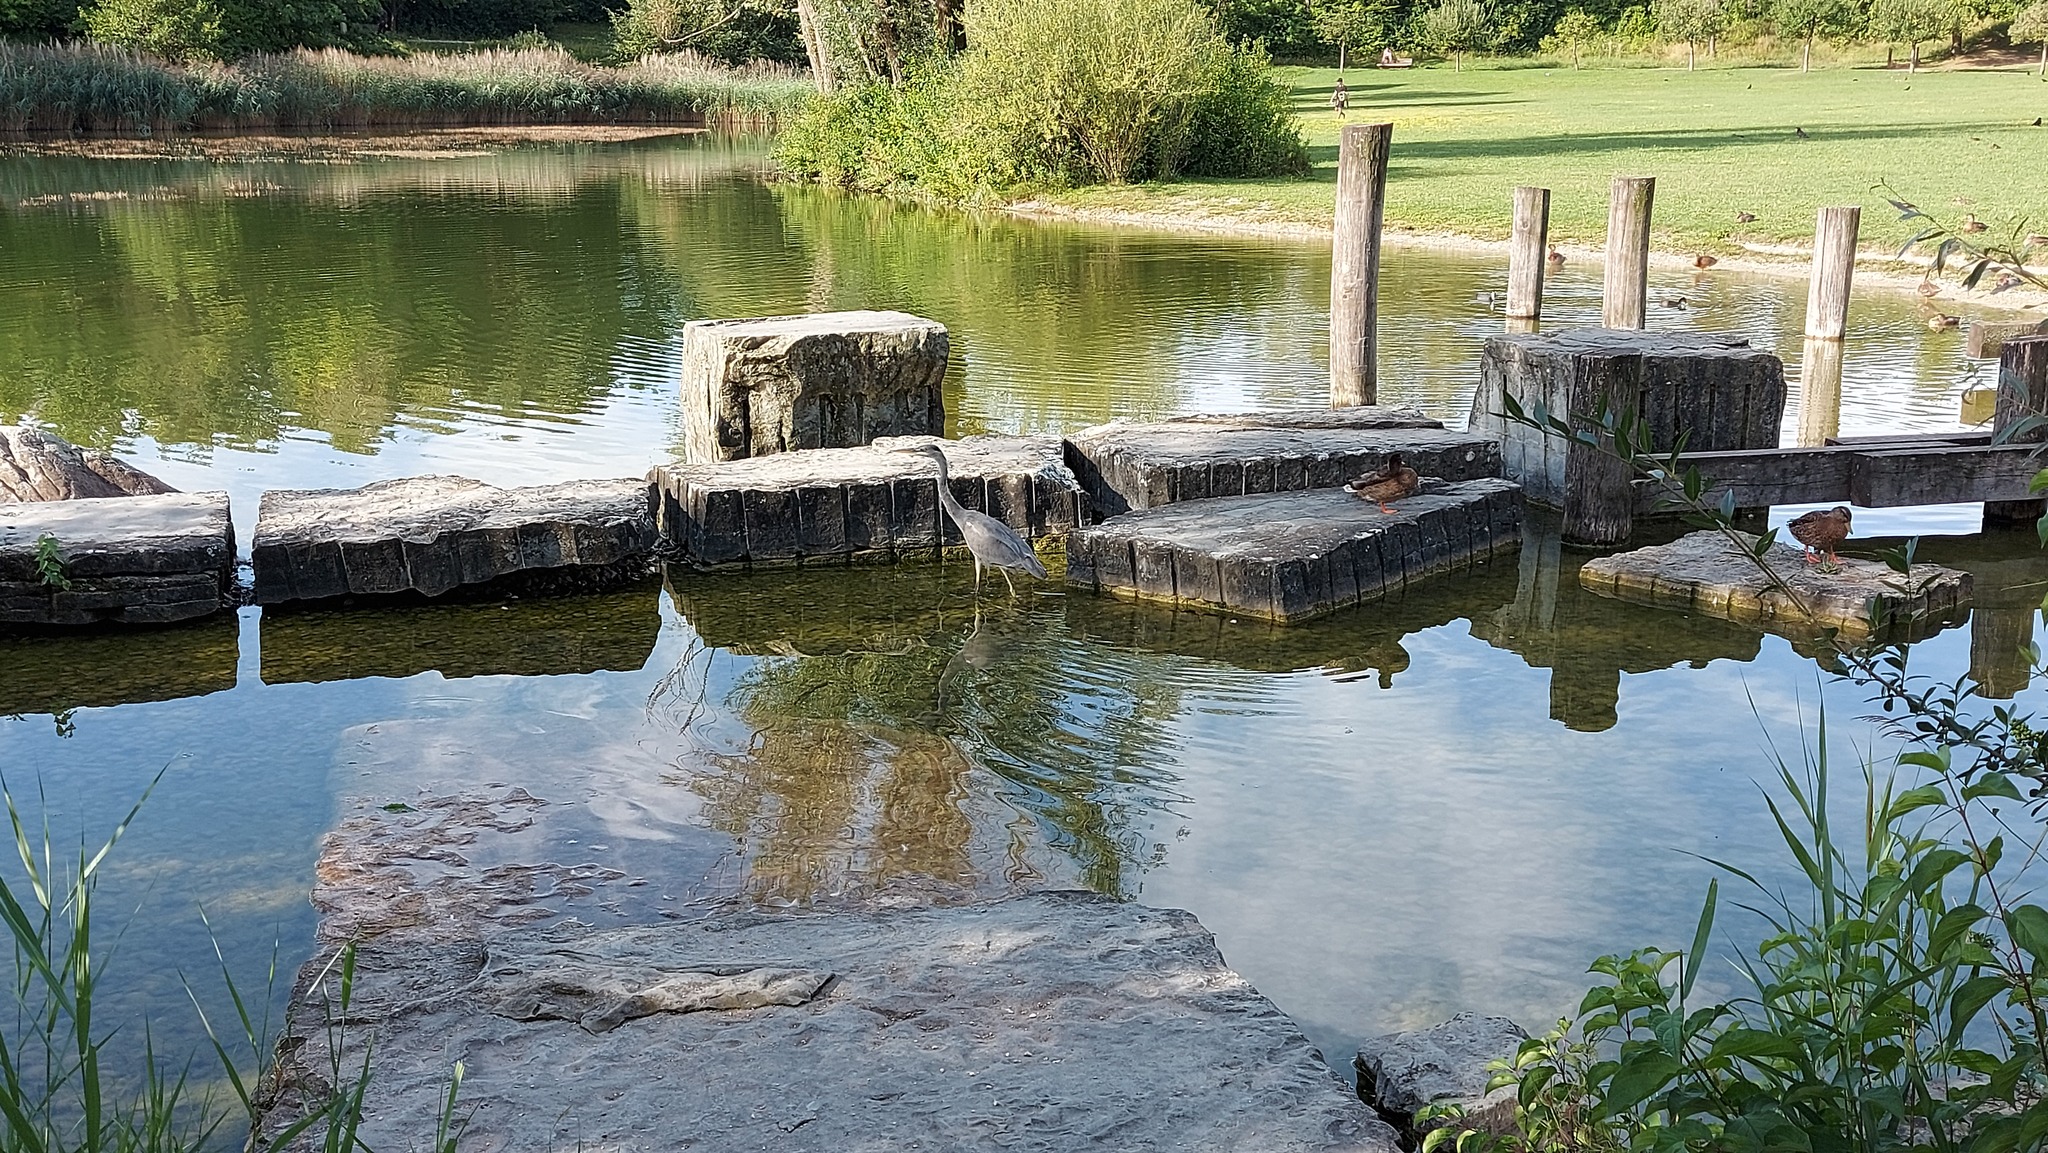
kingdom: Animalia
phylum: Chordata
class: Aves
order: Pelecaniformes
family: Ardeidae
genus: Ardea
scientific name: Ardea cinerea
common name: Grey heron
